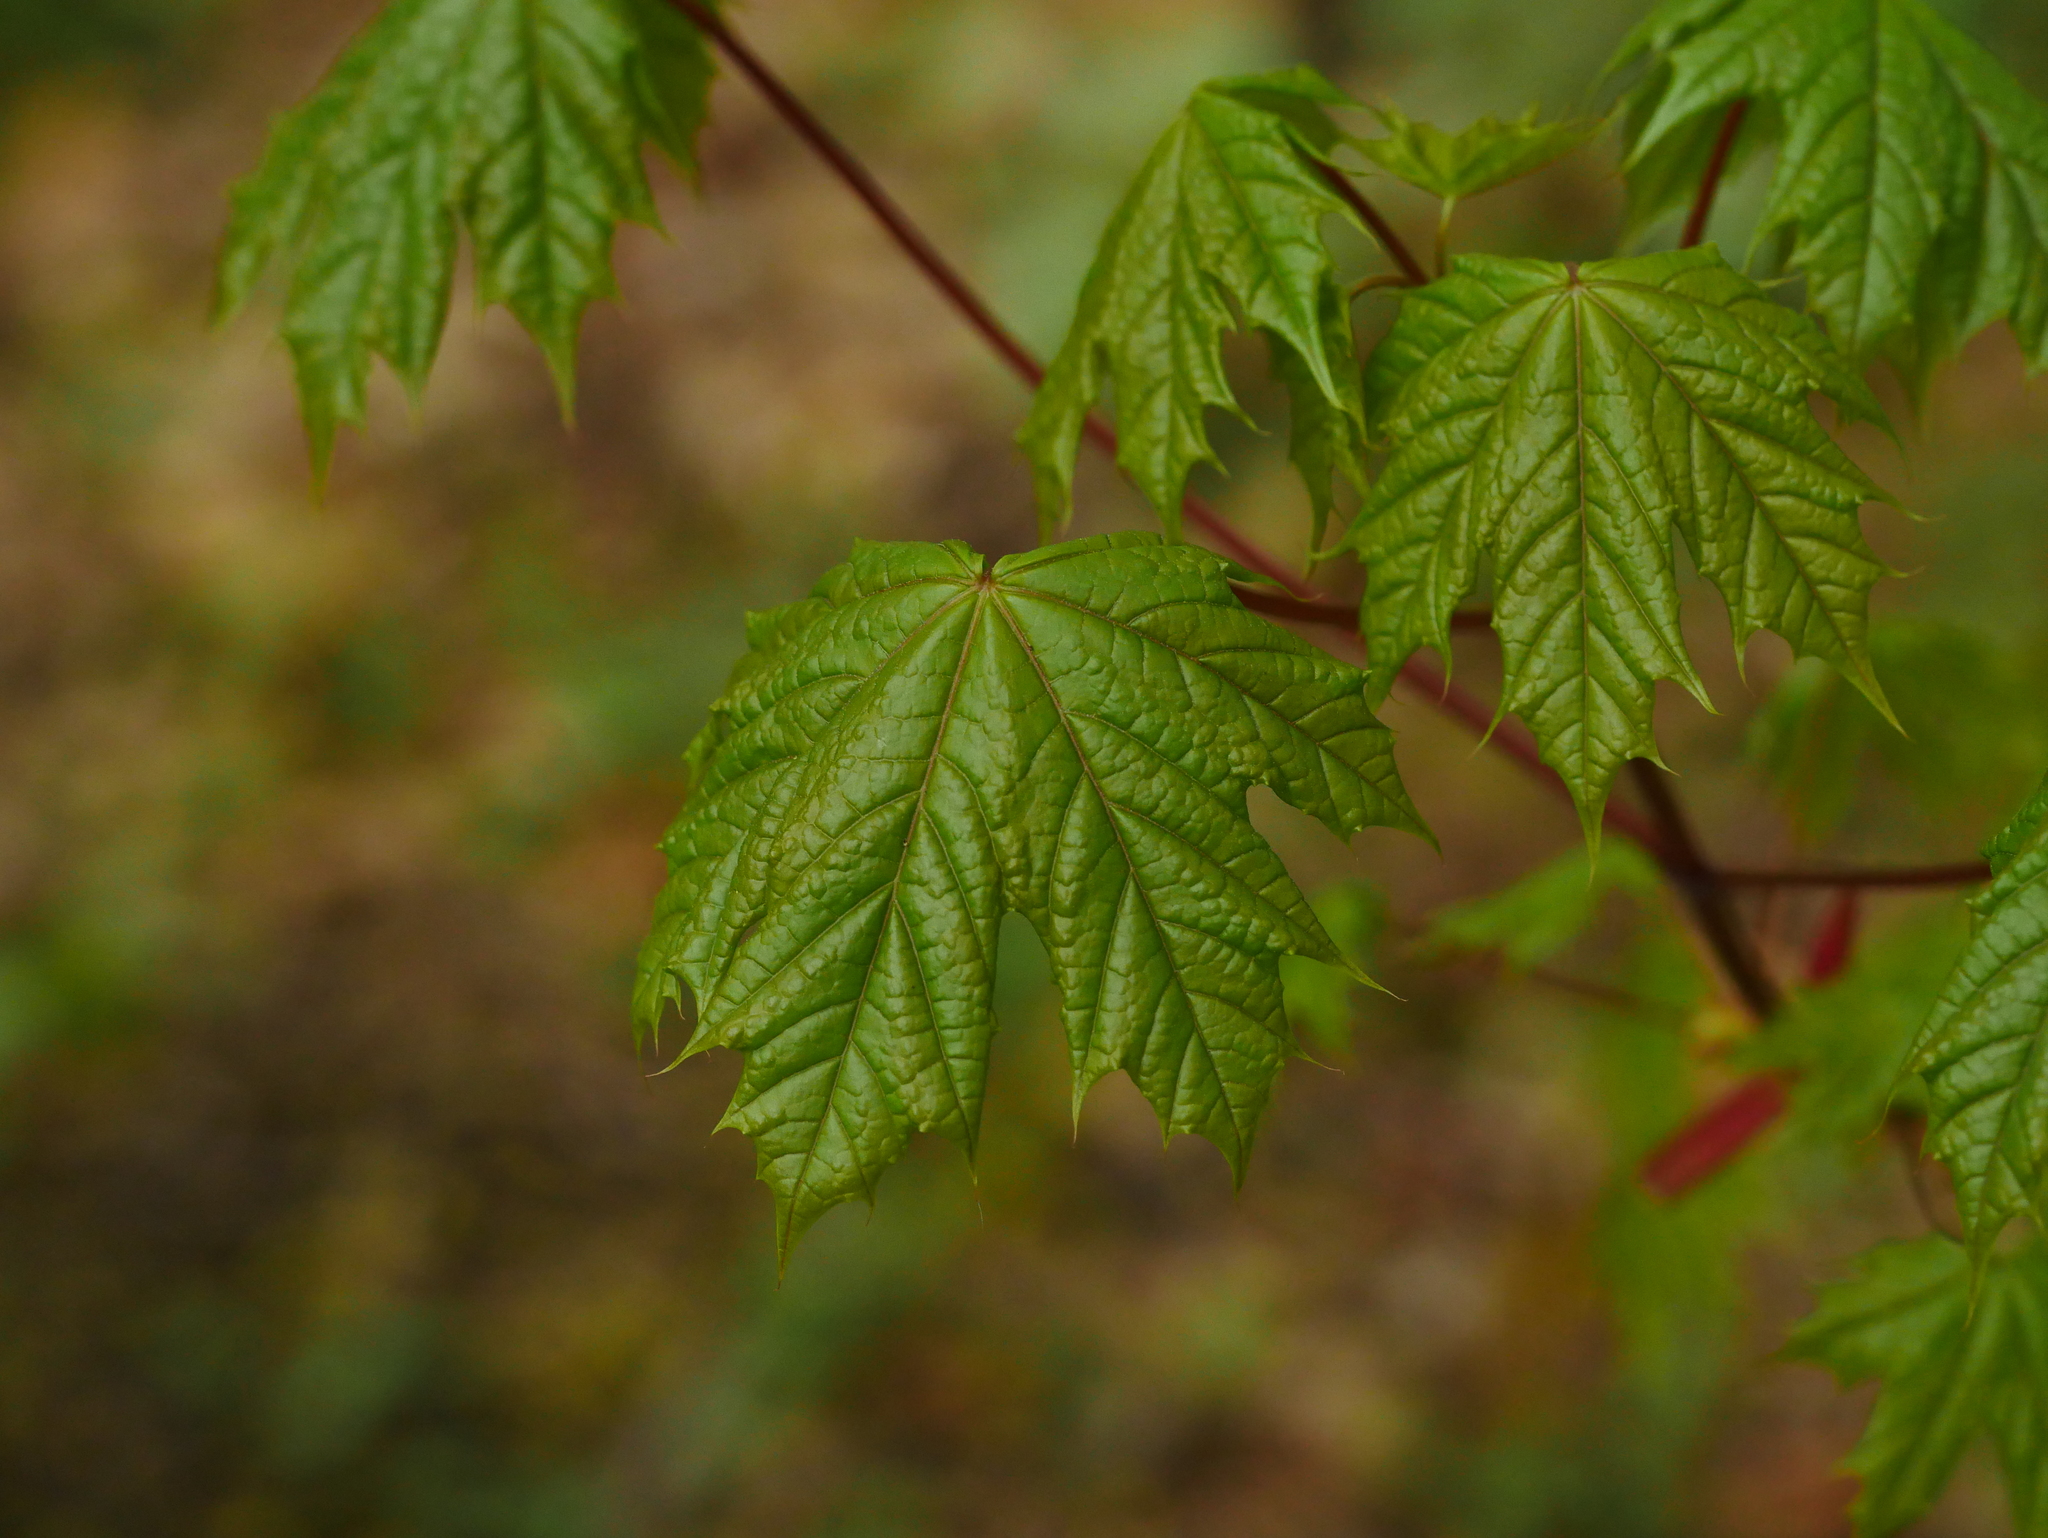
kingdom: Plantae
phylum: Tracheophyta
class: Magnoliopsida
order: Sapindales
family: Sapindaceae
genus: Acer
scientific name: Acer platanoides
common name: Norway maple
